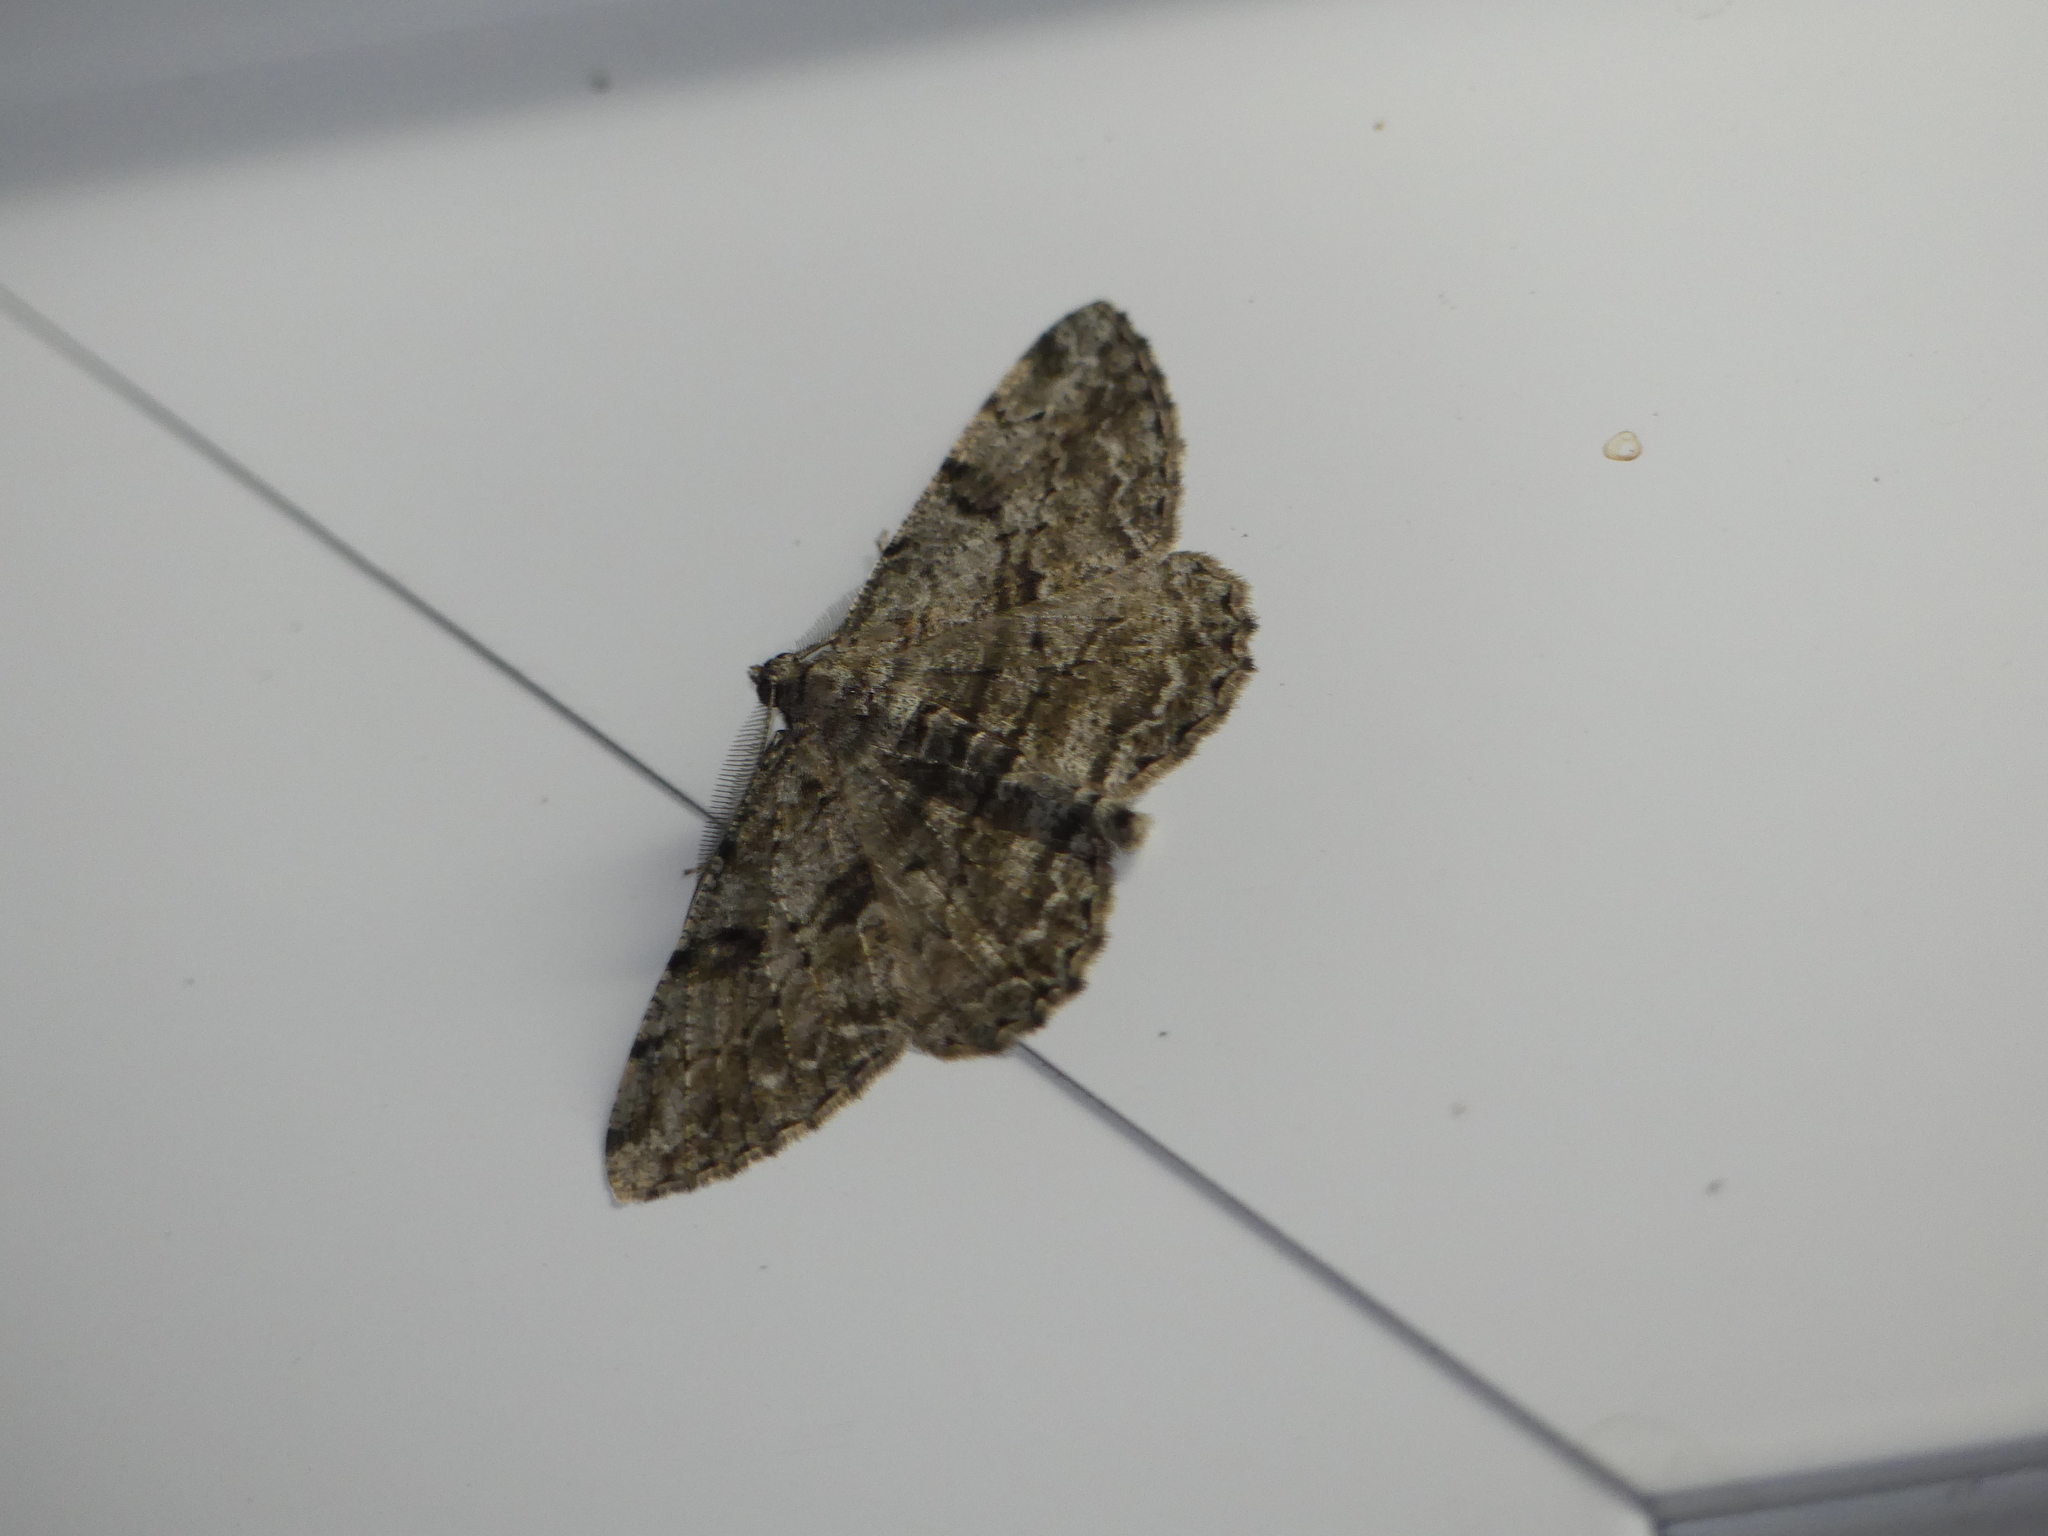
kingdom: Animalia
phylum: Arthropoda
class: Insecta
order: Lepidoptera
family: Geometridae
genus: Peribatodes
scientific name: Peribatodes rhomboidaria
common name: Willow beauty
